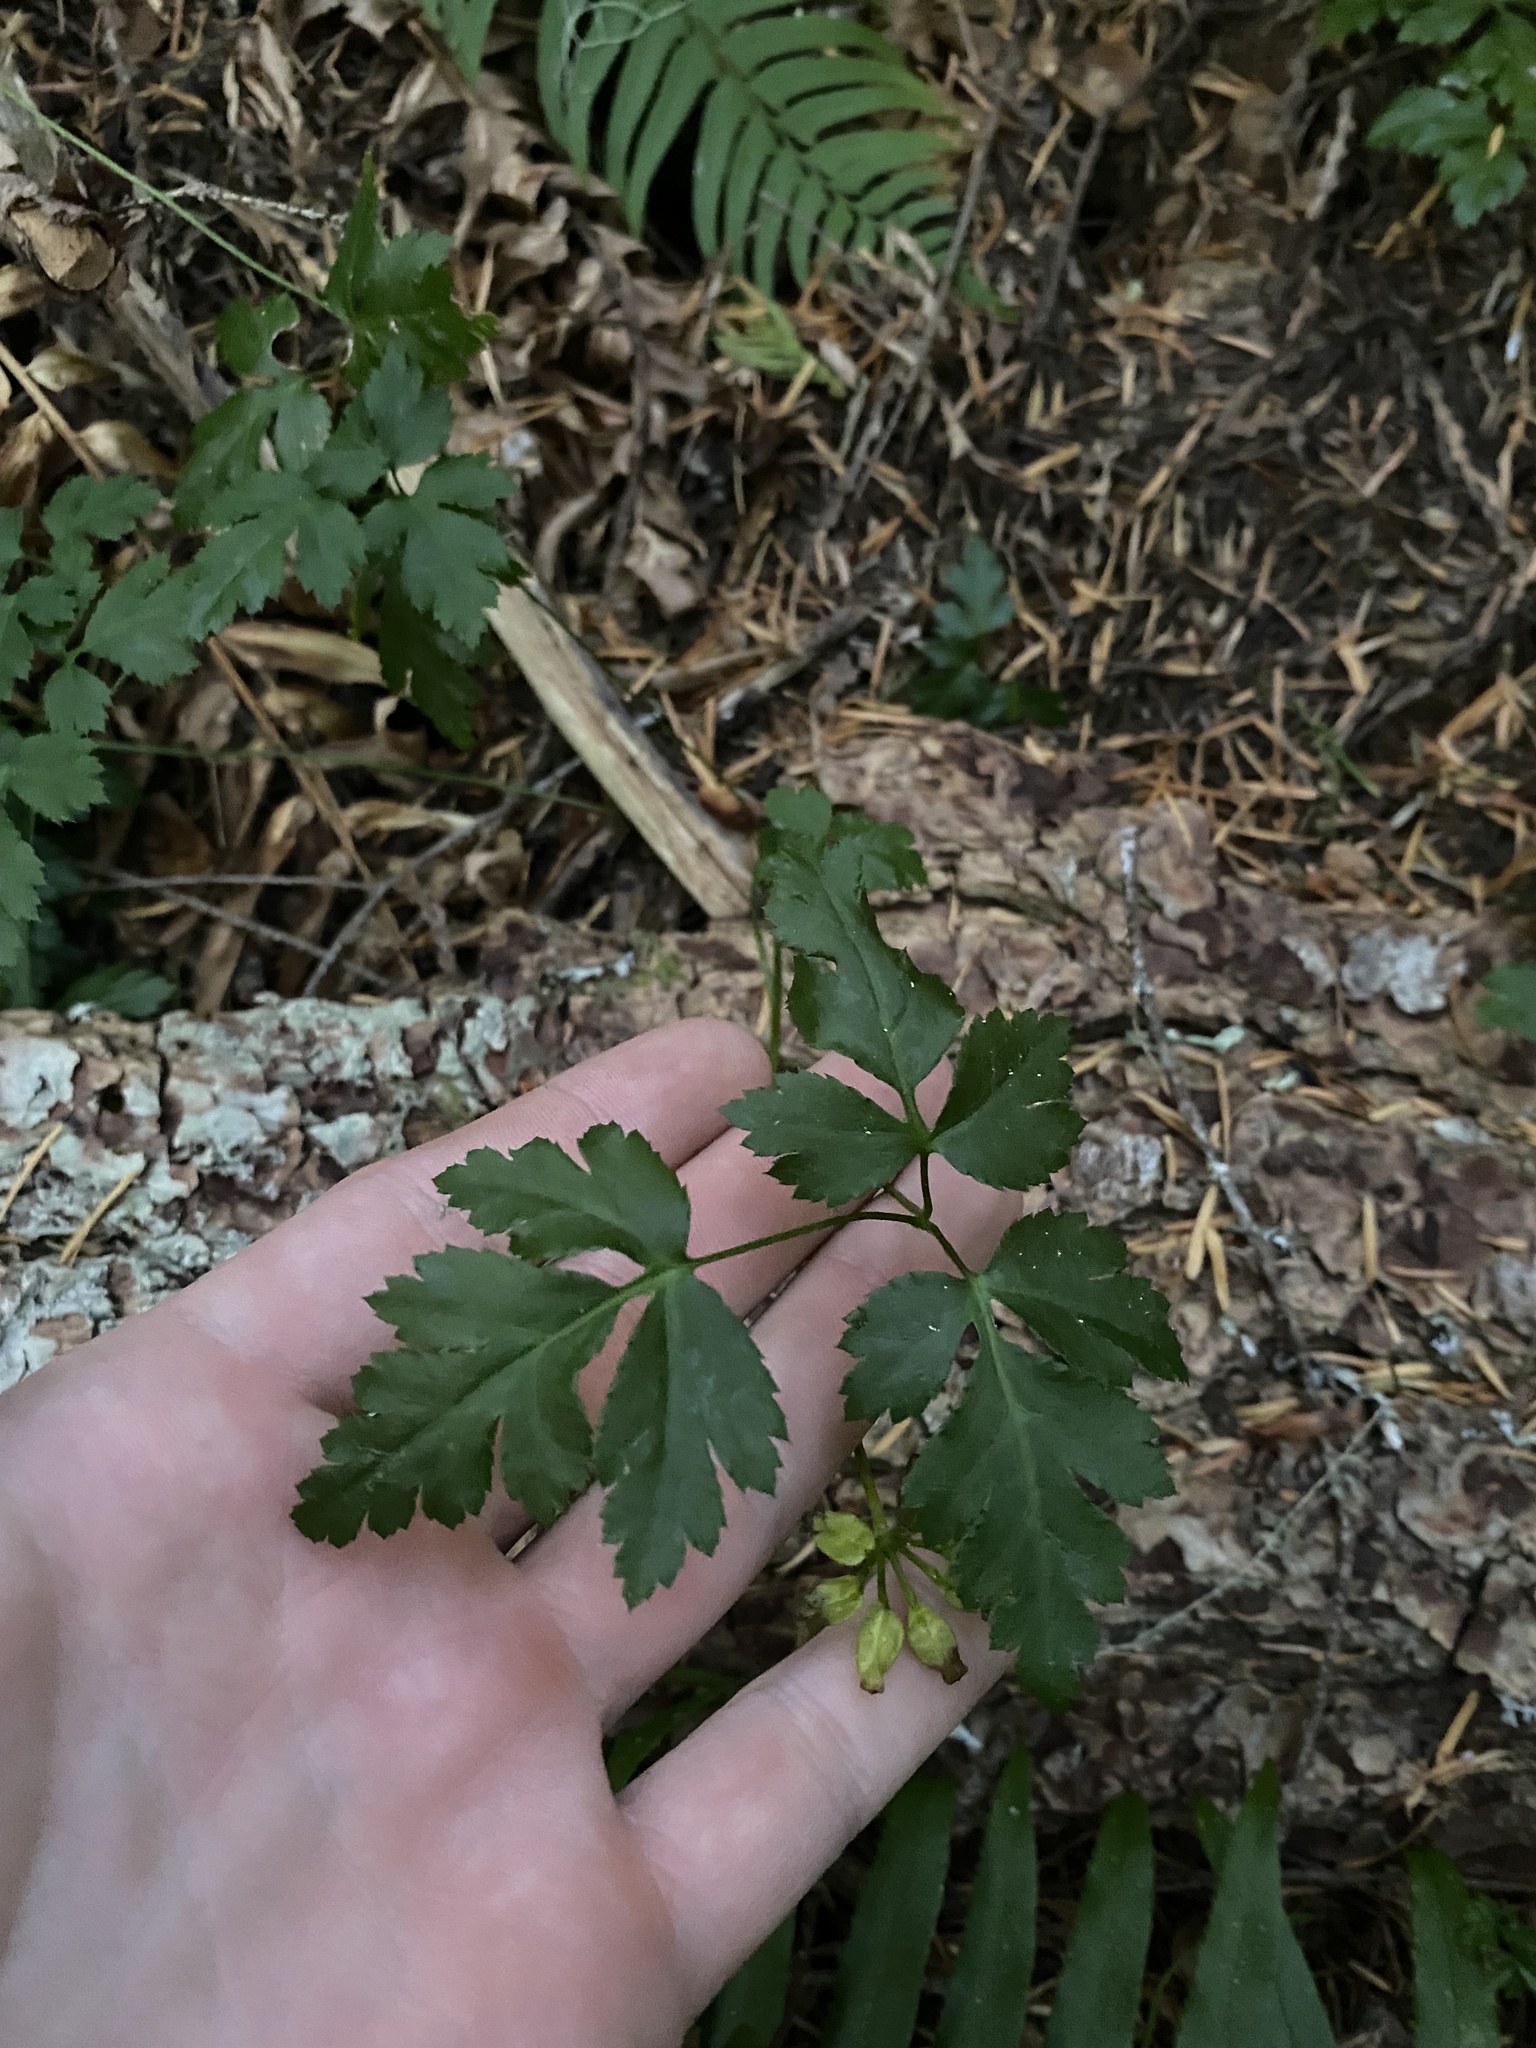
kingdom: Plantae
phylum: Tracheophyta
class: Magnoliopsida
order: Ranunculales
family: Ranunculaceae
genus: Coptis
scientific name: Coptis laciniata
